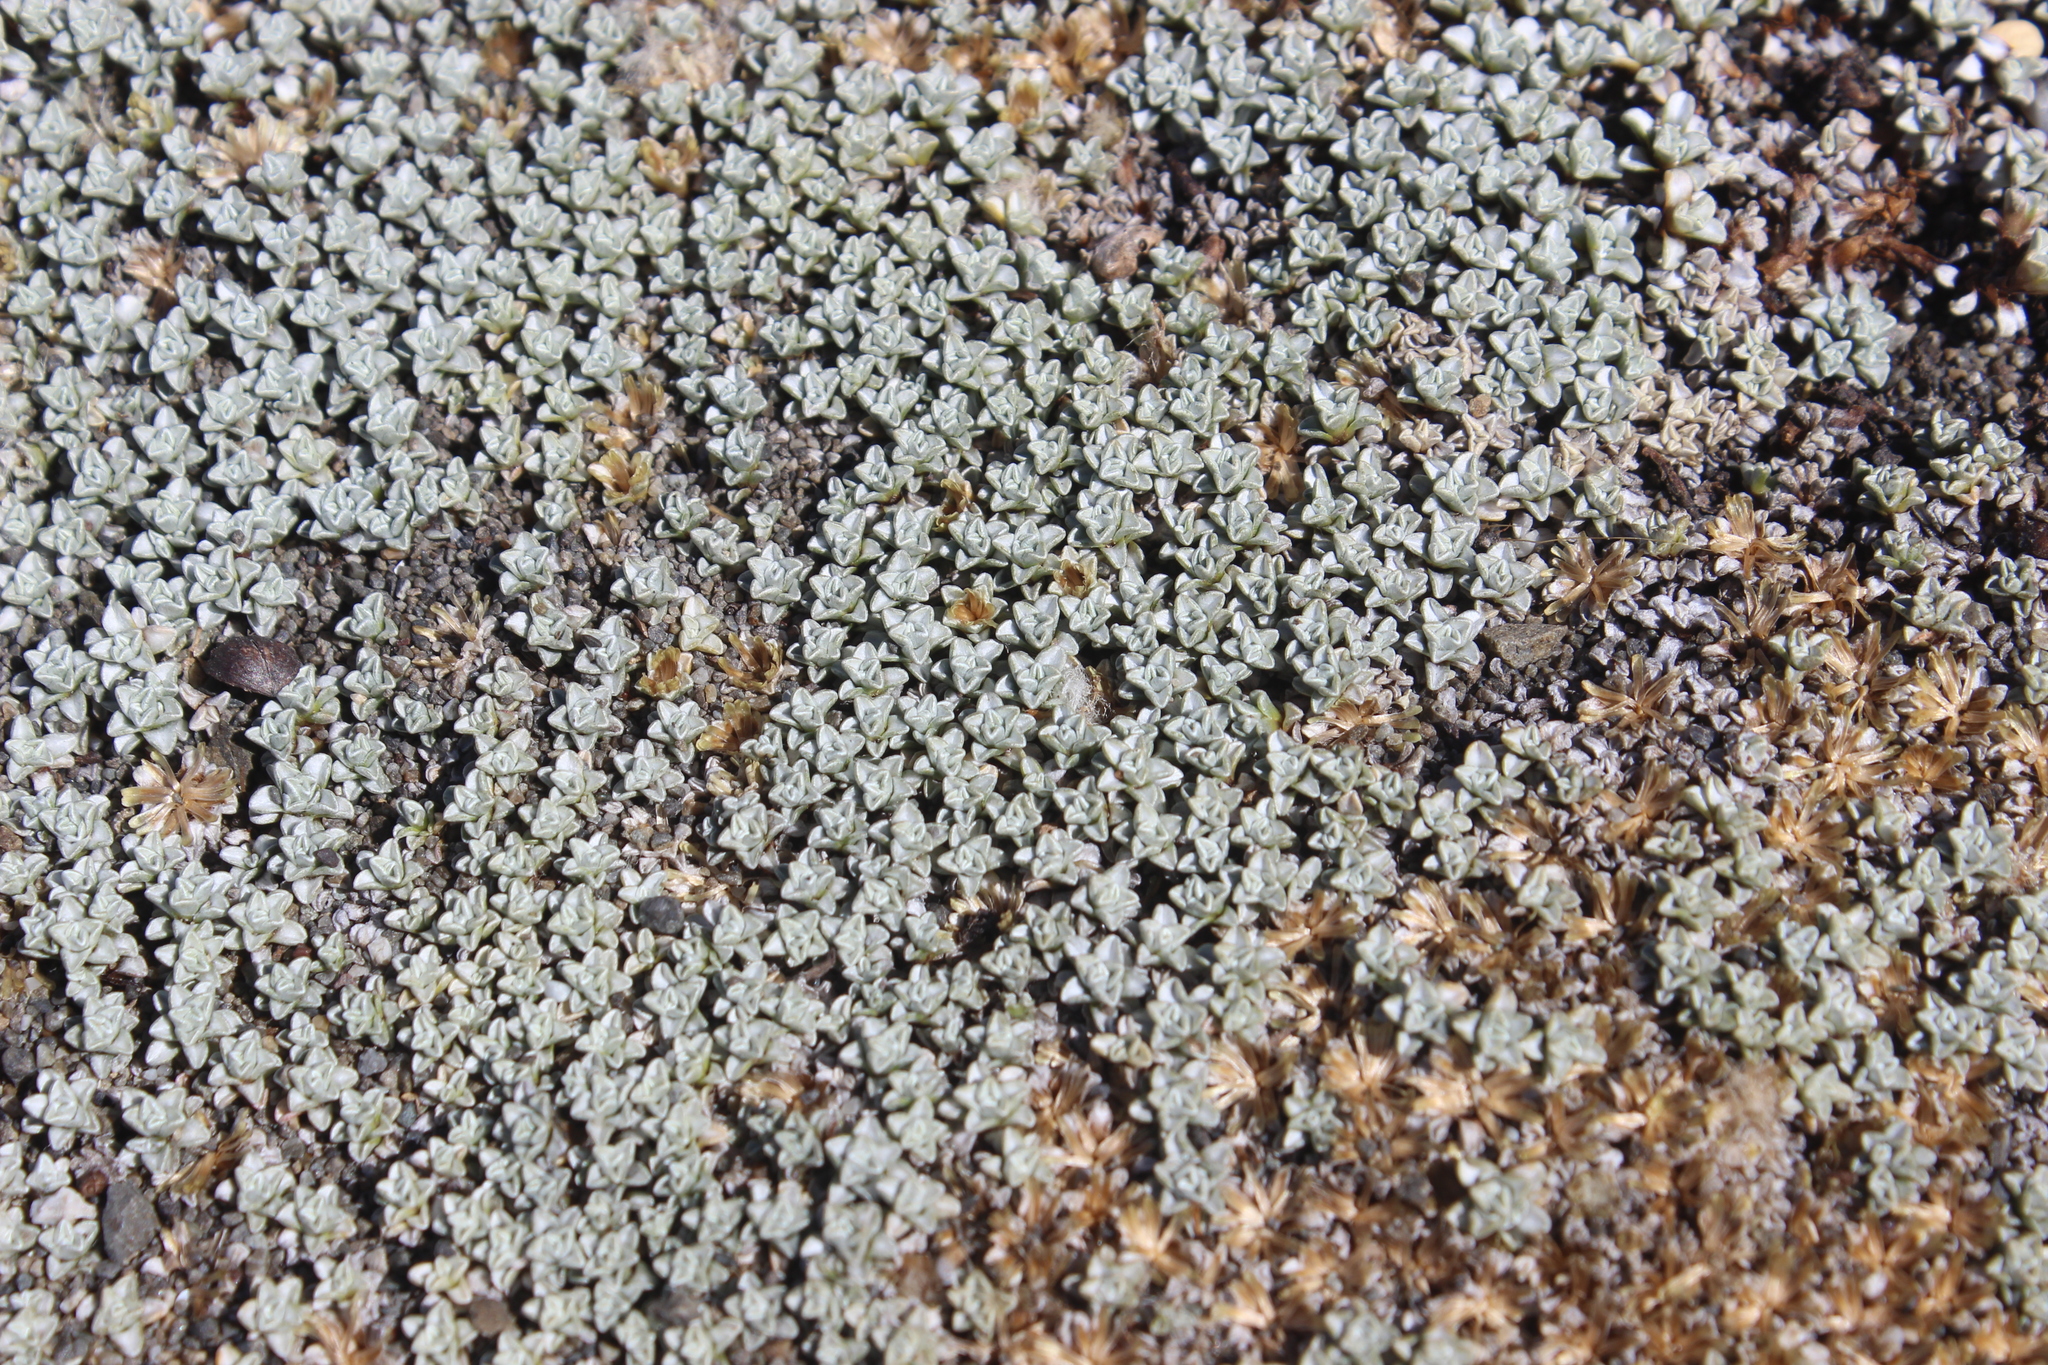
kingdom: Plantae
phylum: Tracheophyta
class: Magnoliopsida
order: Asterales
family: Asteraceae
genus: Raoulia
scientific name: Raoulia hookeri
